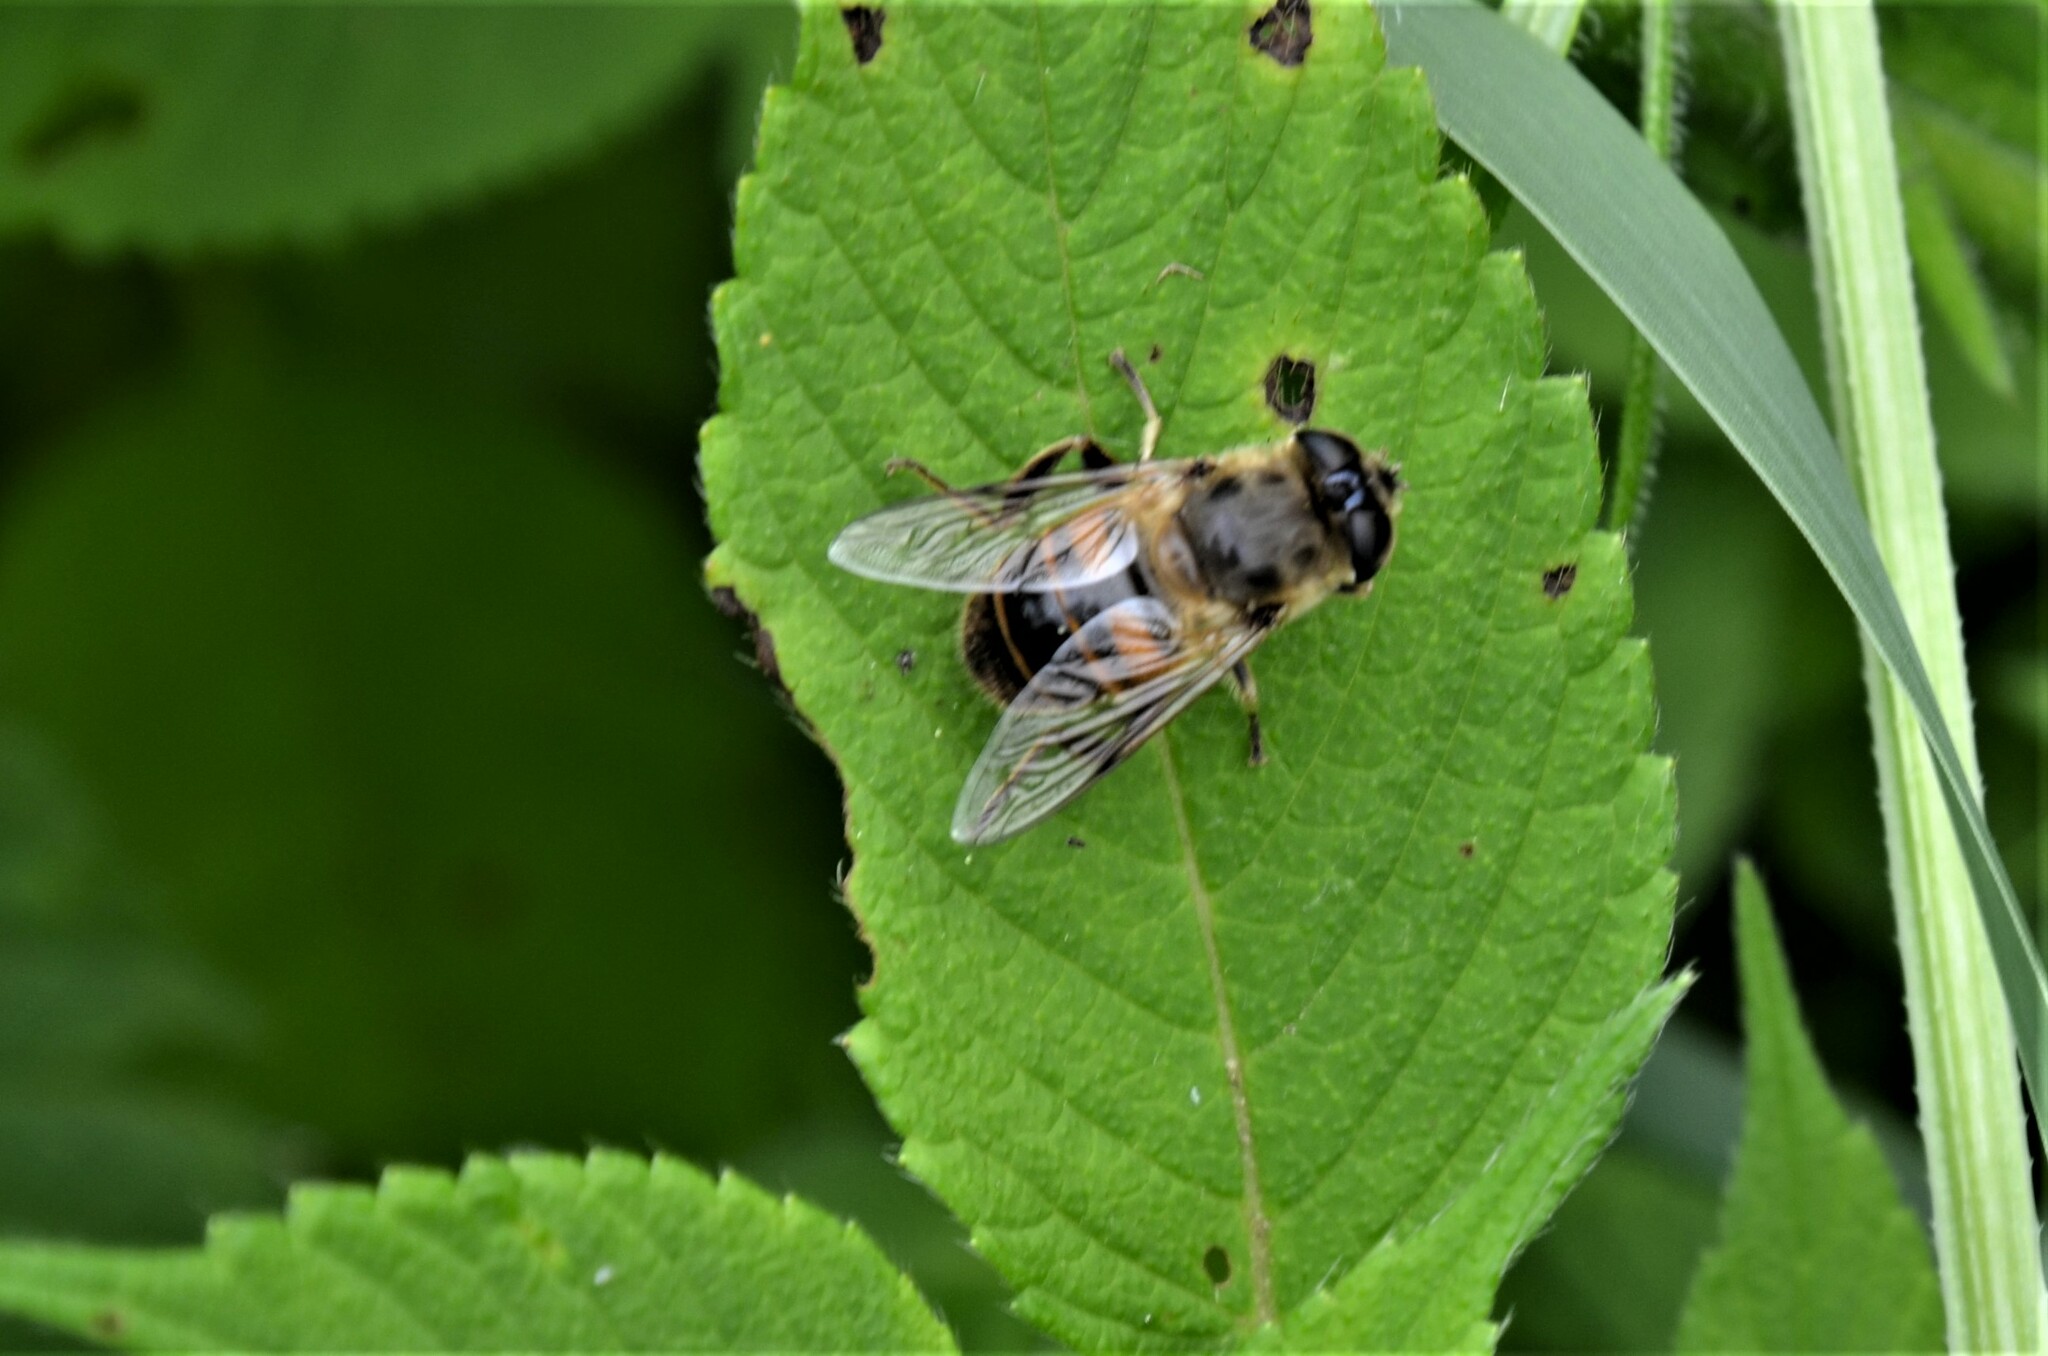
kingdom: Animalia
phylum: Arthropoda
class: Insecta
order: Diptera
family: Syrphidae
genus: Eristalis
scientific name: Eristalis tenax
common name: Drone fly
